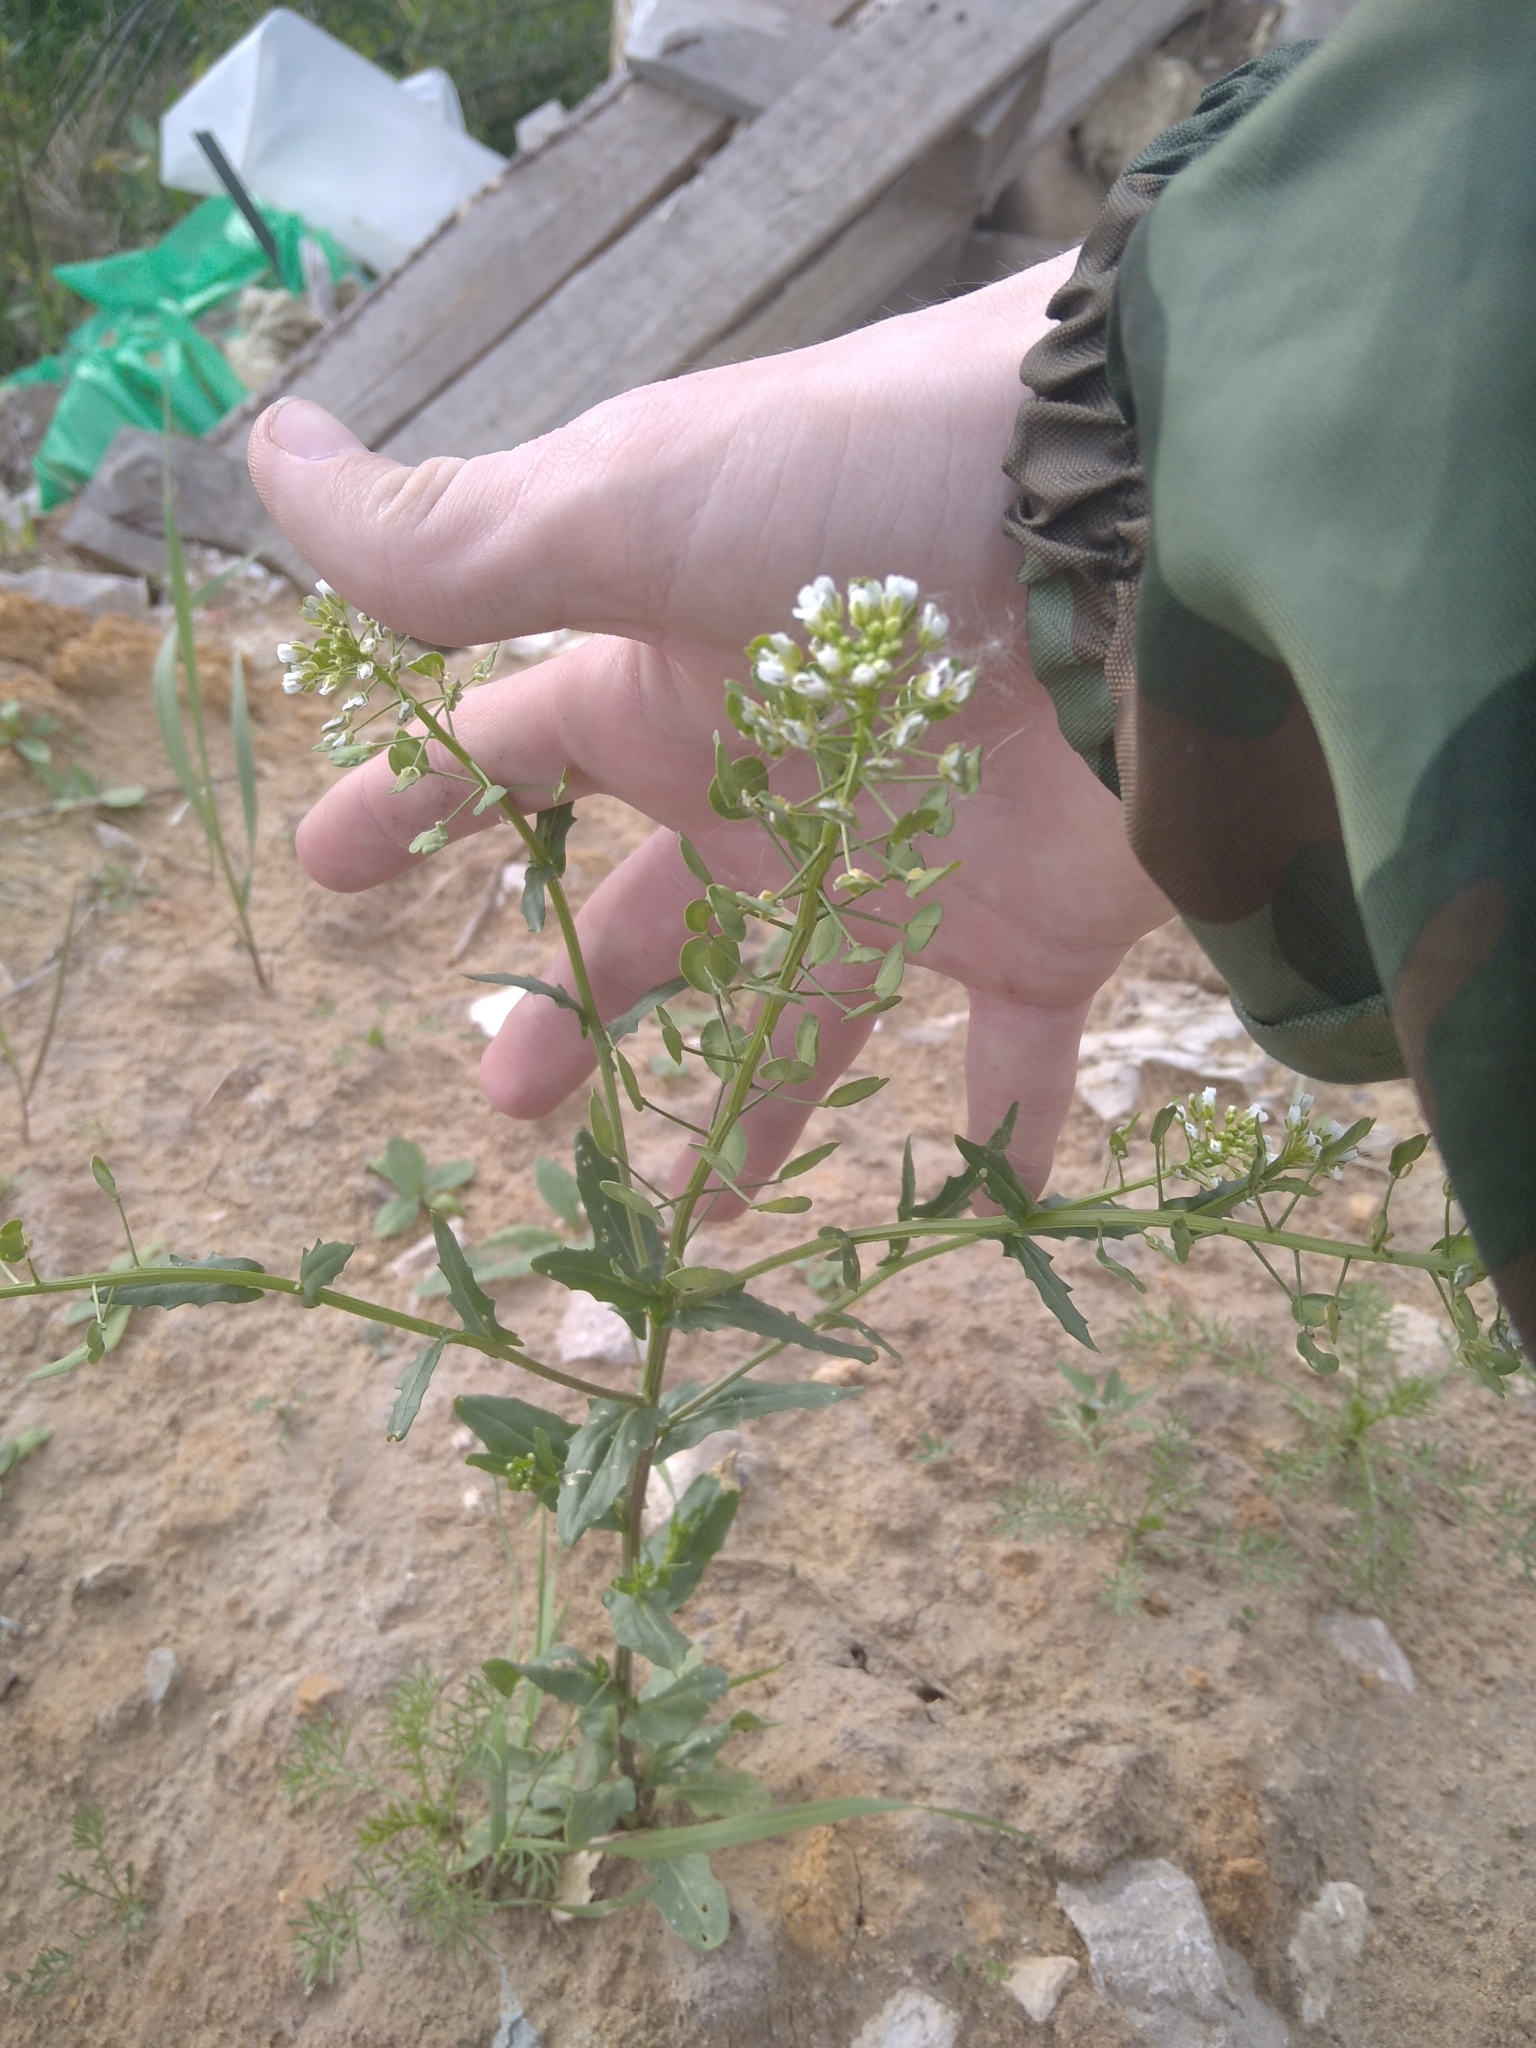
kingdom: Plantae
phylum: Tracheophyta
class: Magnoliopsida
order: Brassicales
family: Brassicaceae
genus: Thlaspi
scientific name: Thlaspi arvense
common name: Field pennycress
